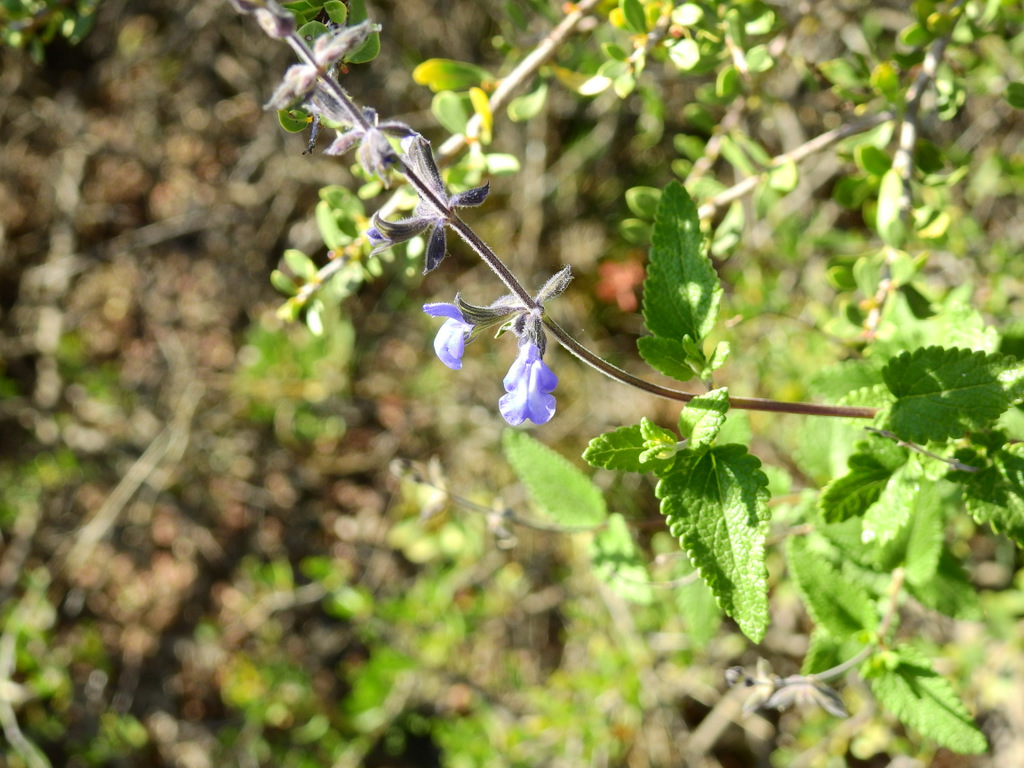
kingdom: Plantae
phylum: Tracheophyta
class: Magnoliopsida
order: Lamiales
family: Lamiaceae
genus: Salvia
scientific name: Salvia cuspidata
